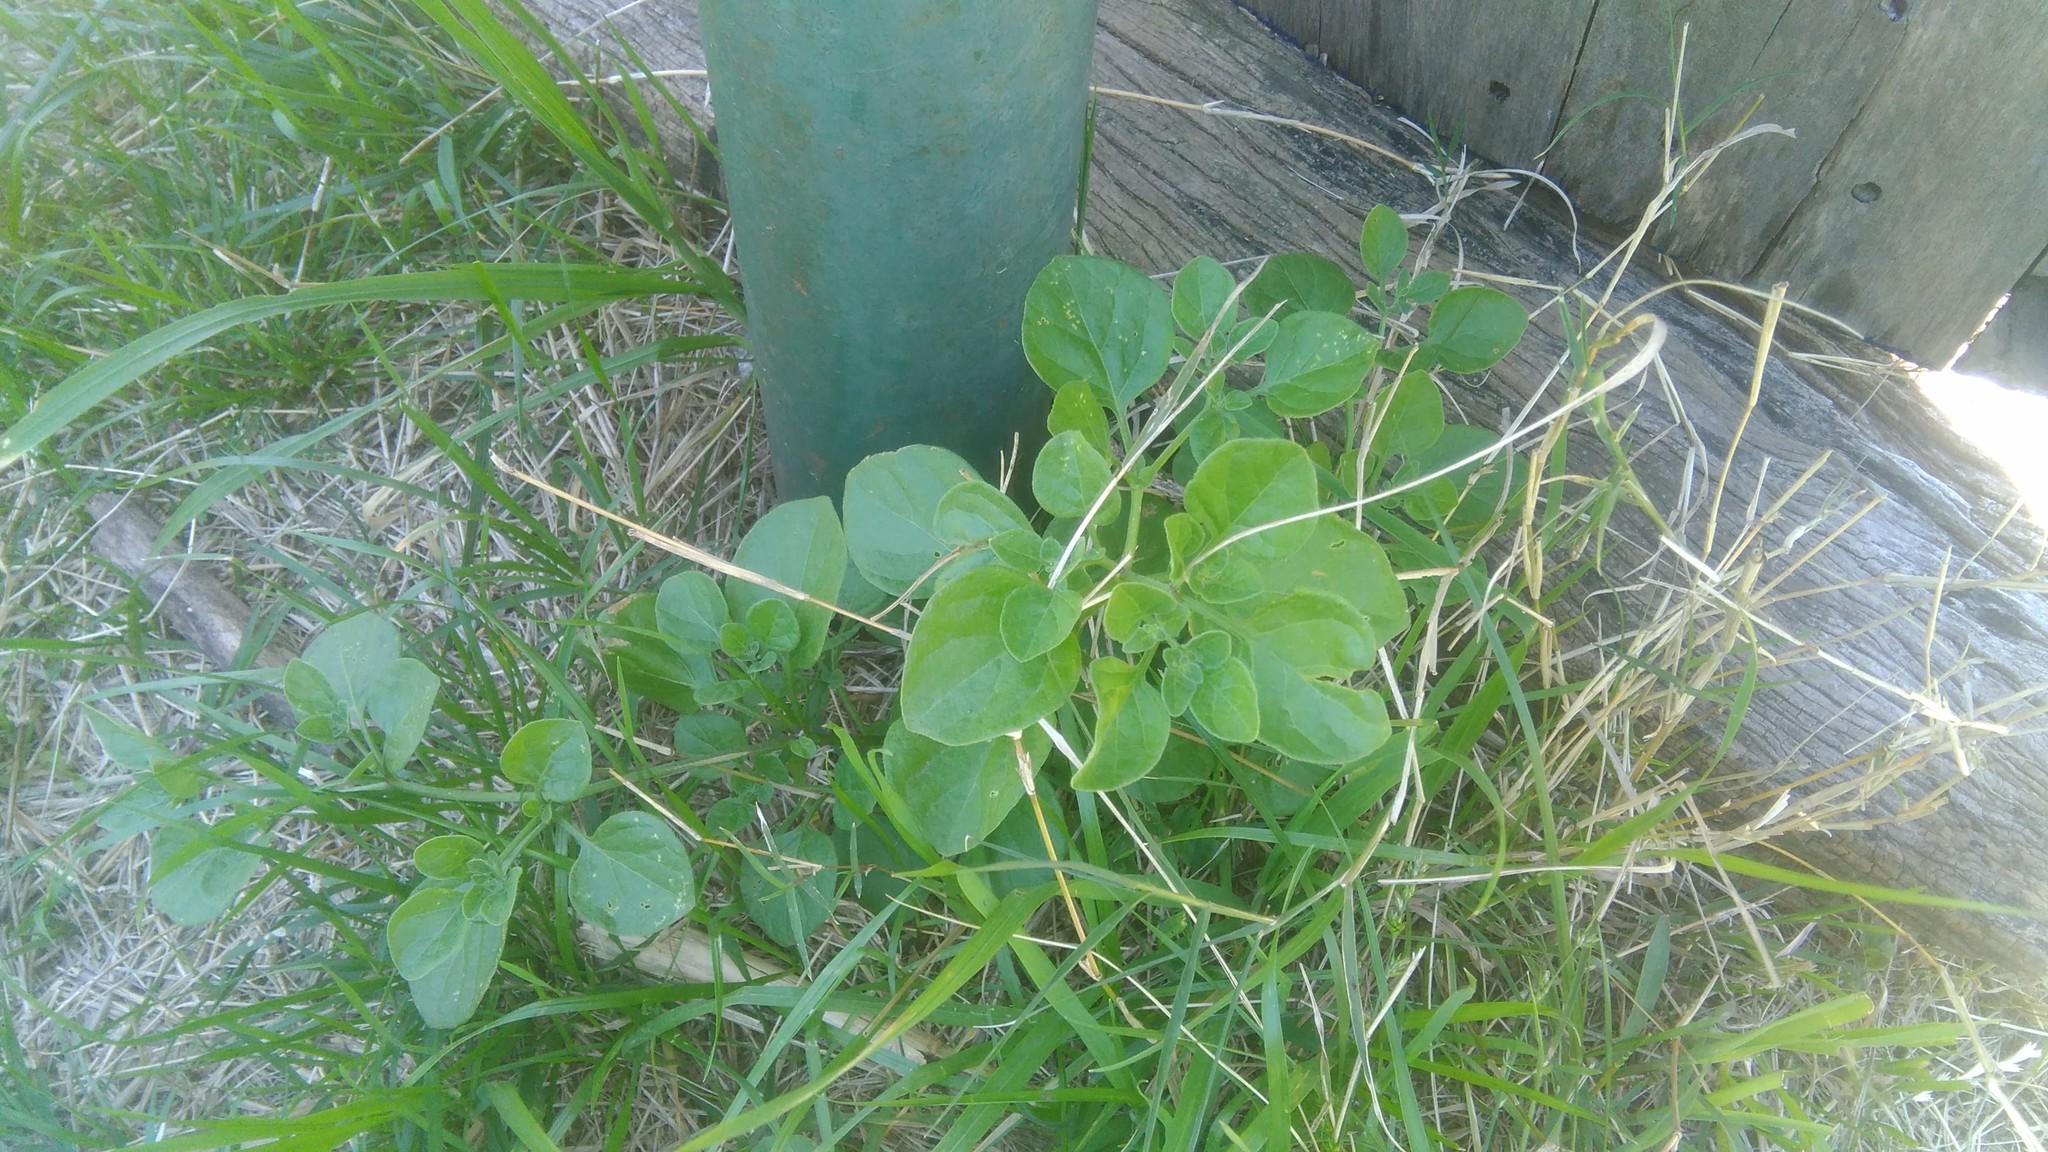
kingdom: Plantae
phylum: Tracheophyta
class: Magnoliopsida
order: Solanales
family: Solanaceae
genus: Salpichroa
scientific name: Salpichroa origanifolia
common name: Lily-of-the-valley-vine
